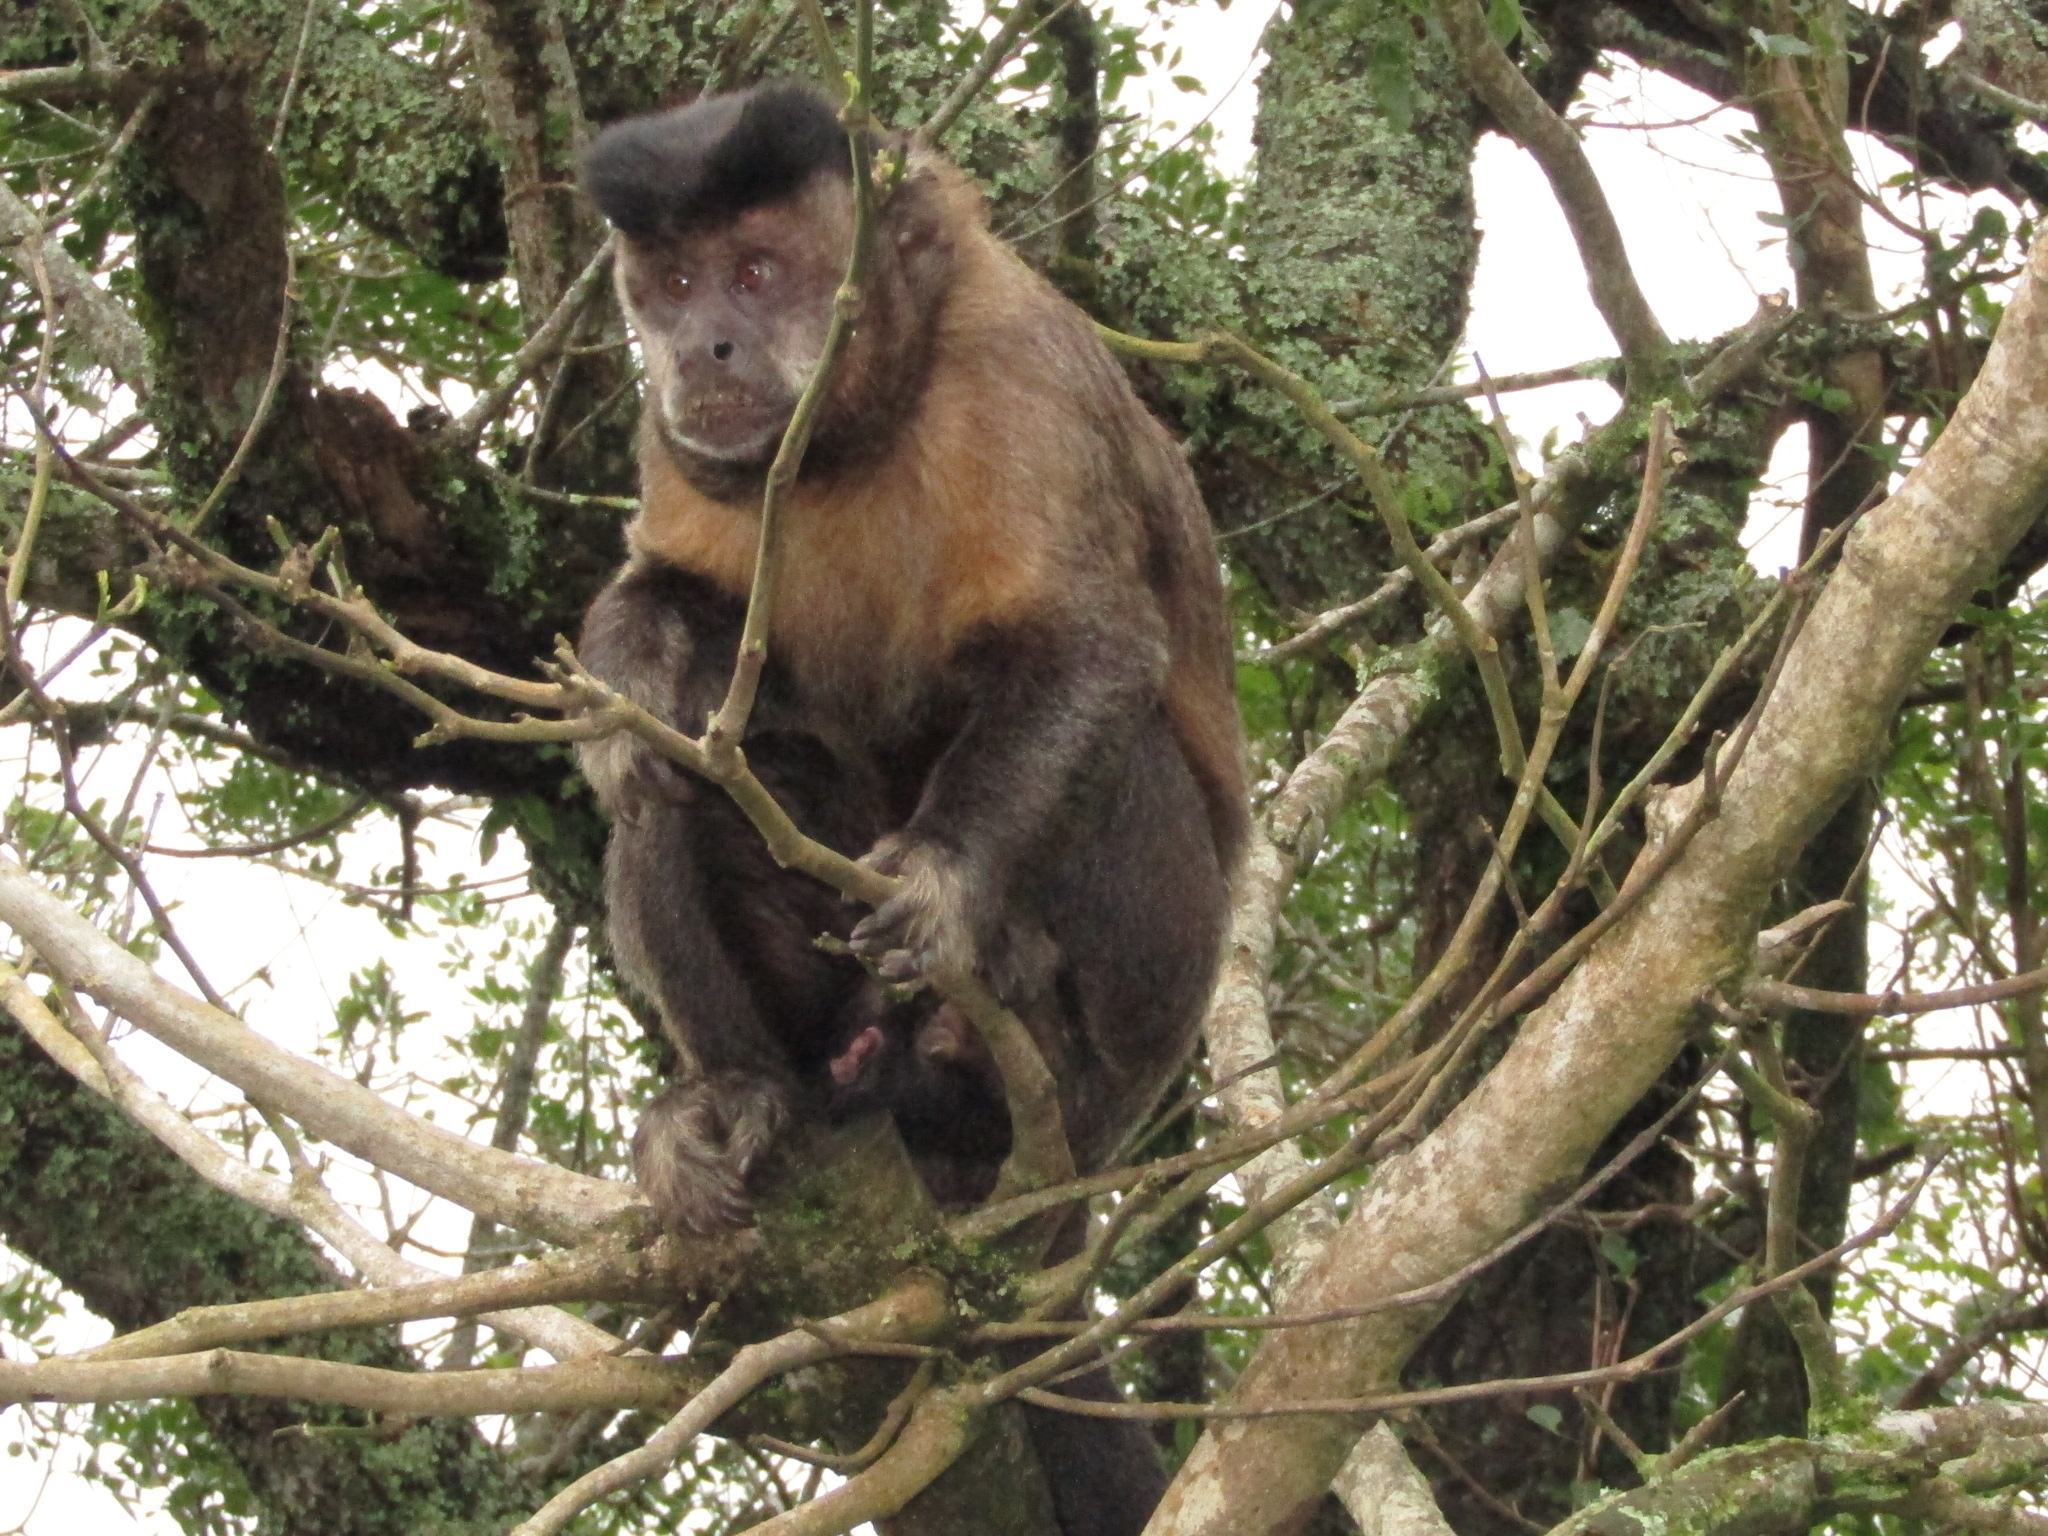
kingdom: Animalia
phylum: Chordata
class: Mammalia
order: Primates
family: Cebidae
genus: Sapajus
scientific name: Sapajus nigritus
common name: Black capuchin
